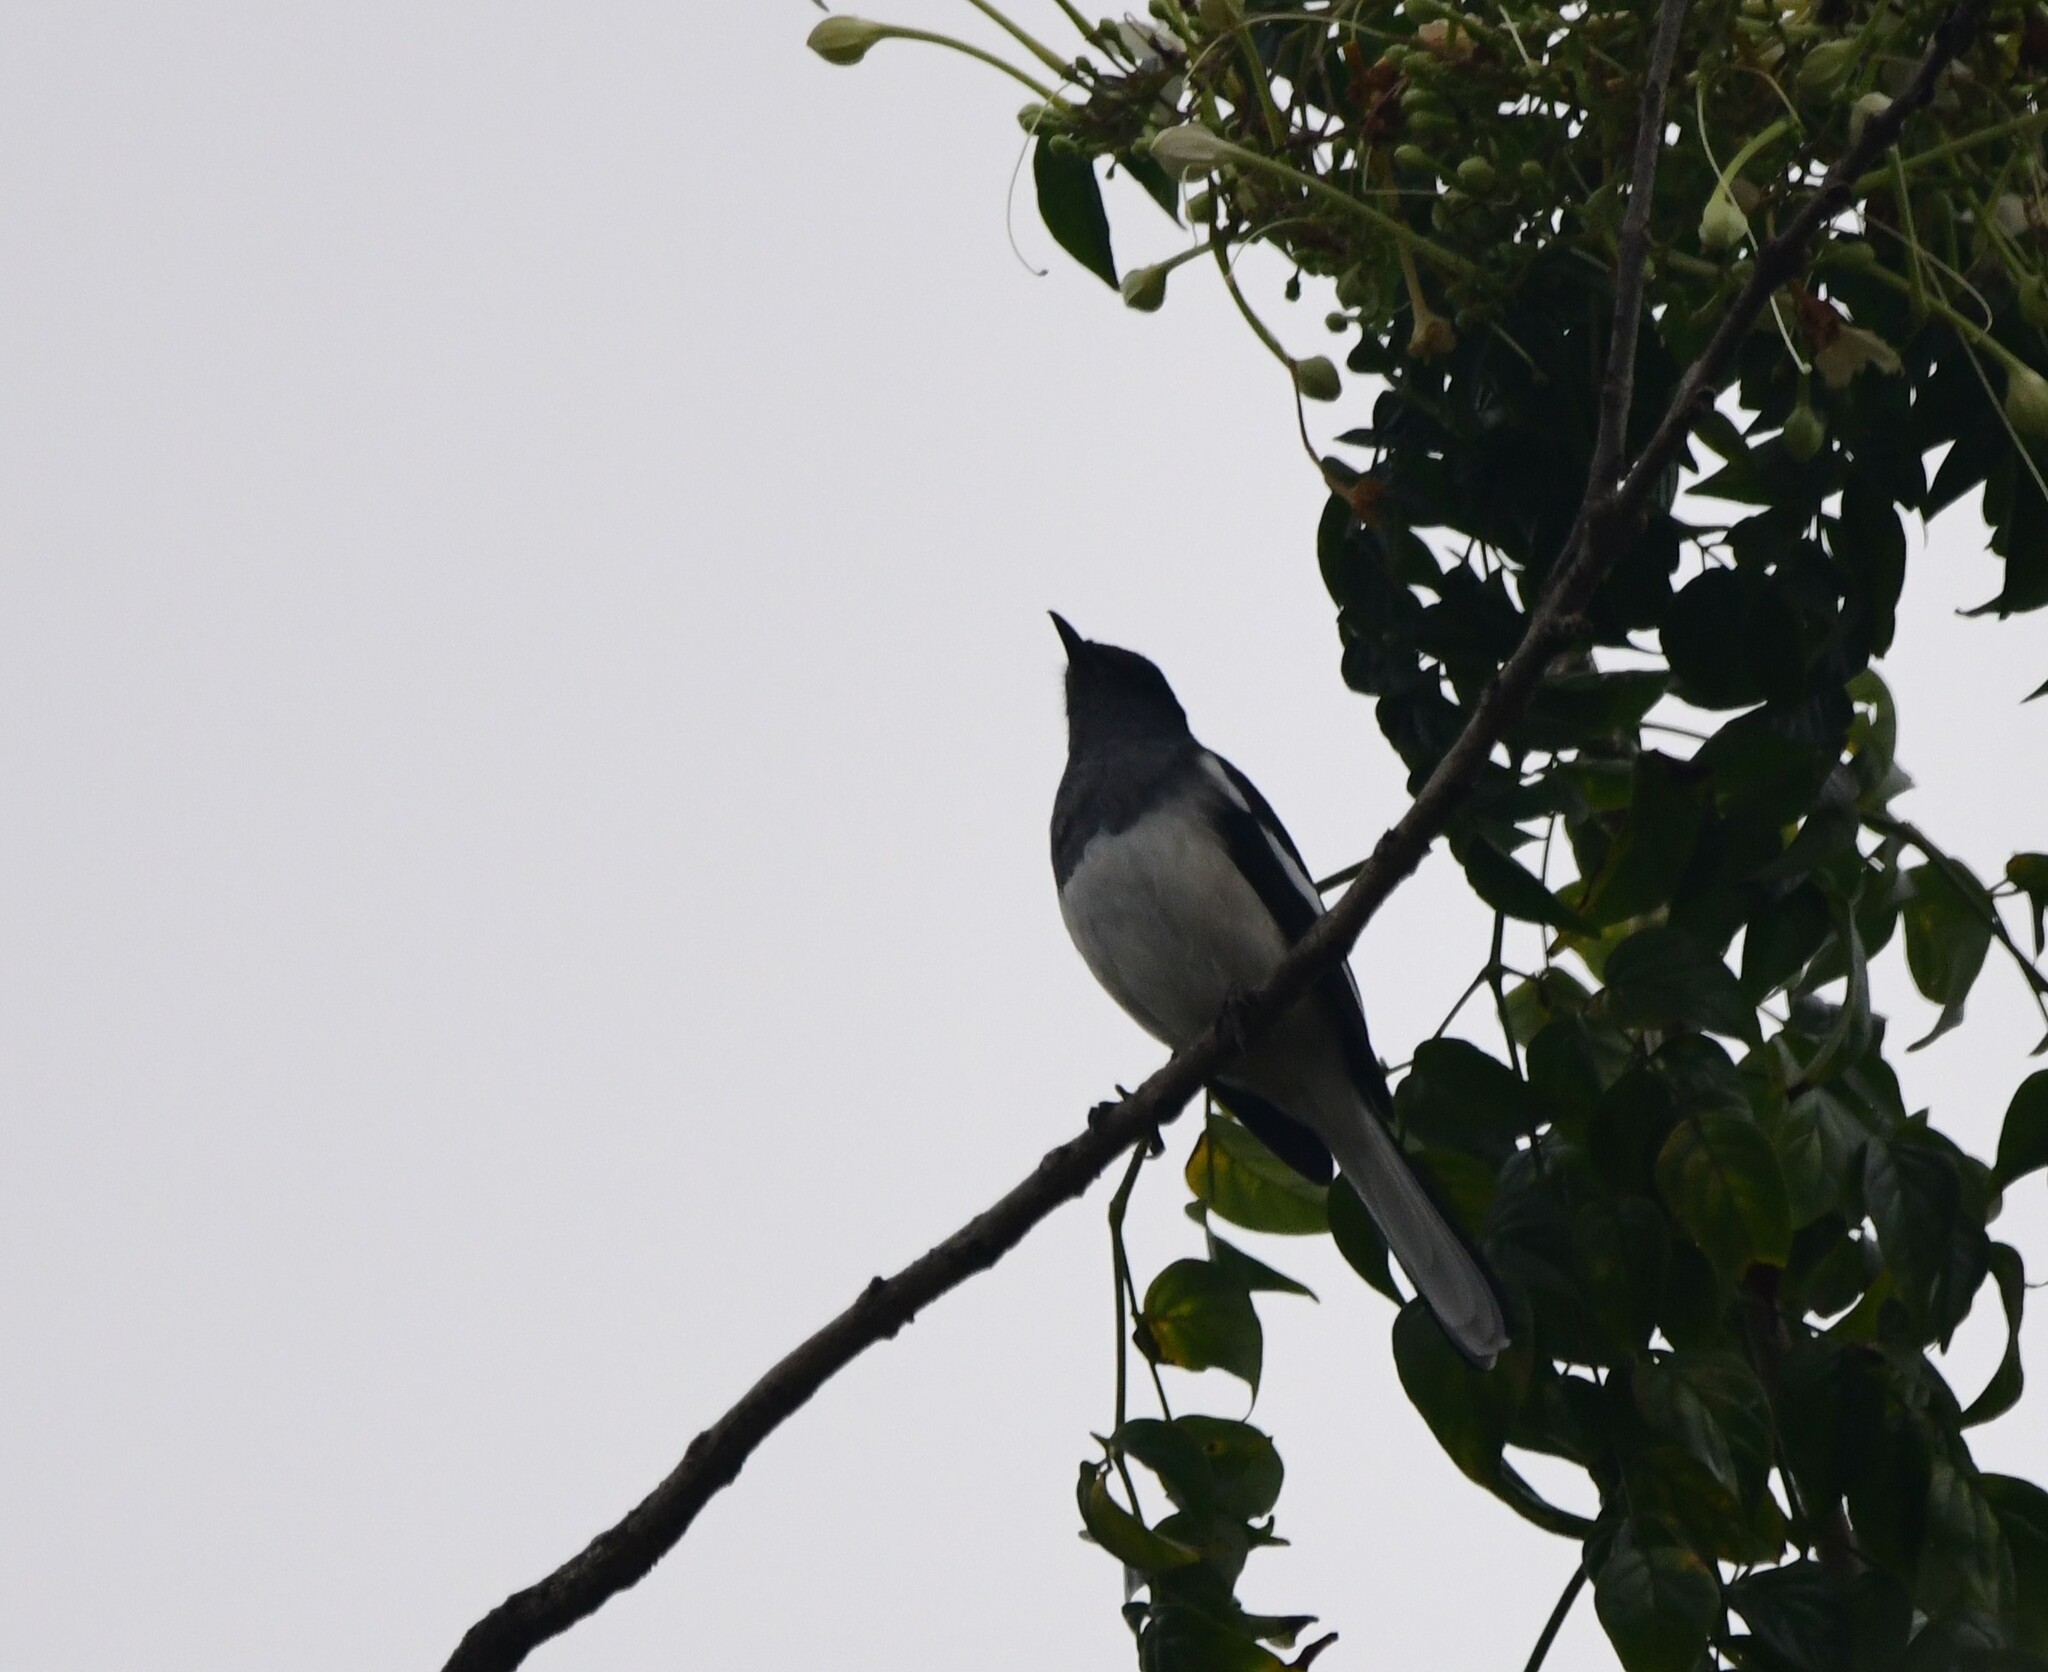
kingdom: Animalia
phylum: Chordata
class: Aves
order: Passeriformes
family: Muscicapidae
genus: Copsychus
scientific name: Copsychus saularis
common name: Oriental magpie-robin
